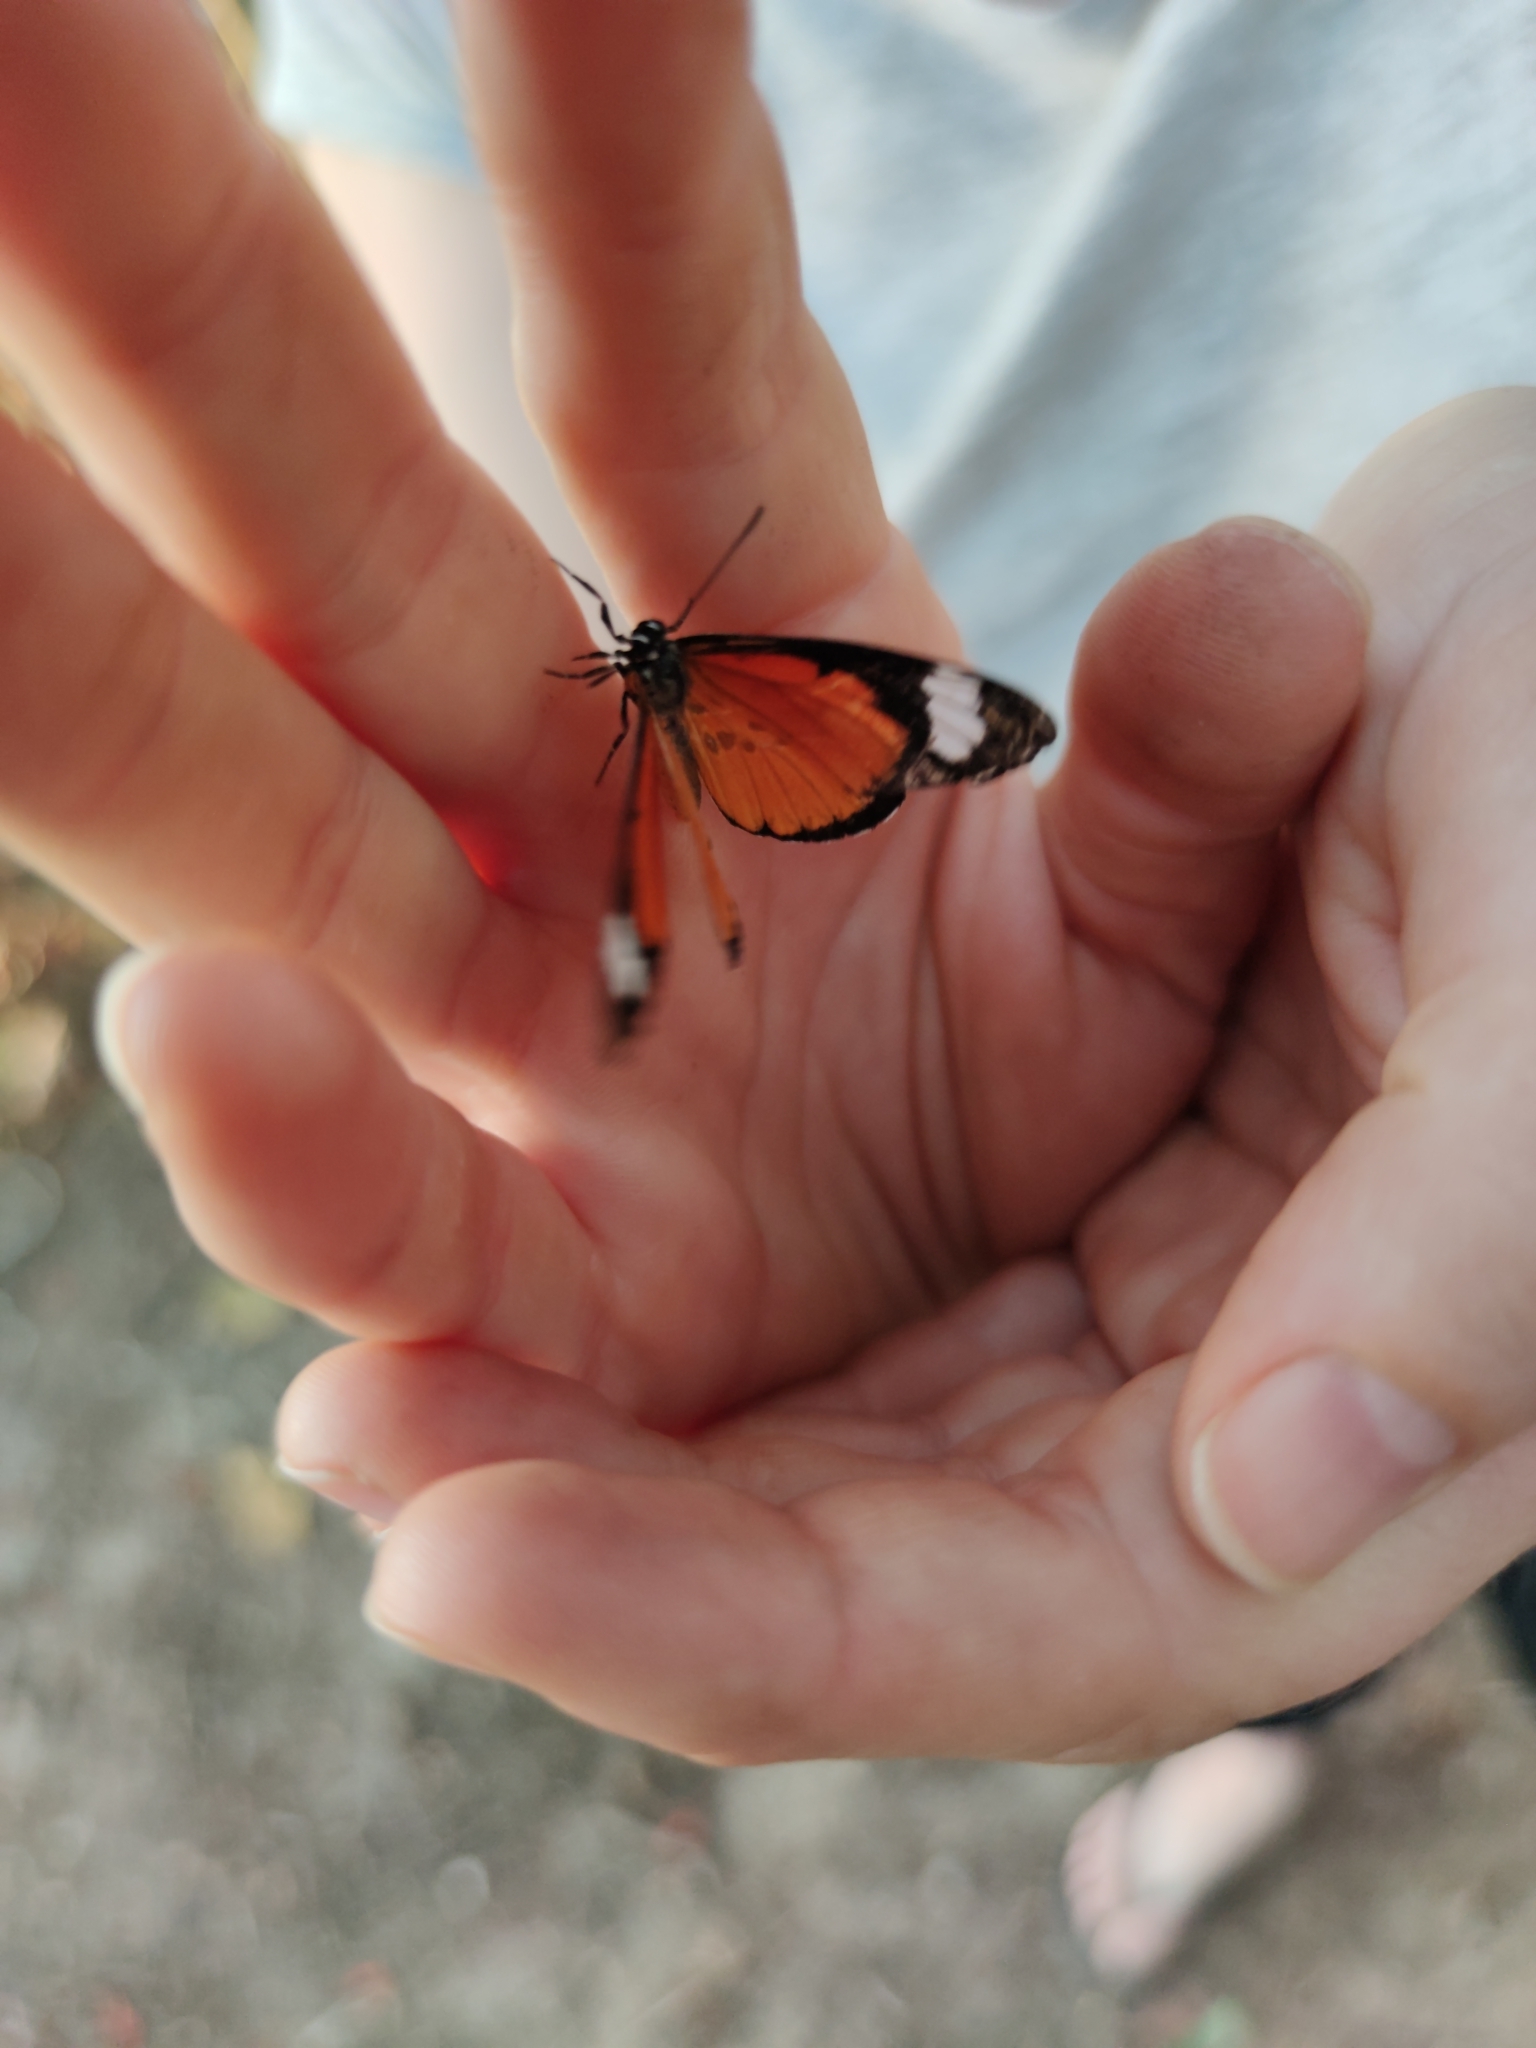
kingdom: Animalia
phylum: Arthropoda
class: Insecta
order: Lepidoptera
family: Lycaenidae
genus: Mimacraea
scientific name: Mimacraea costleyi
